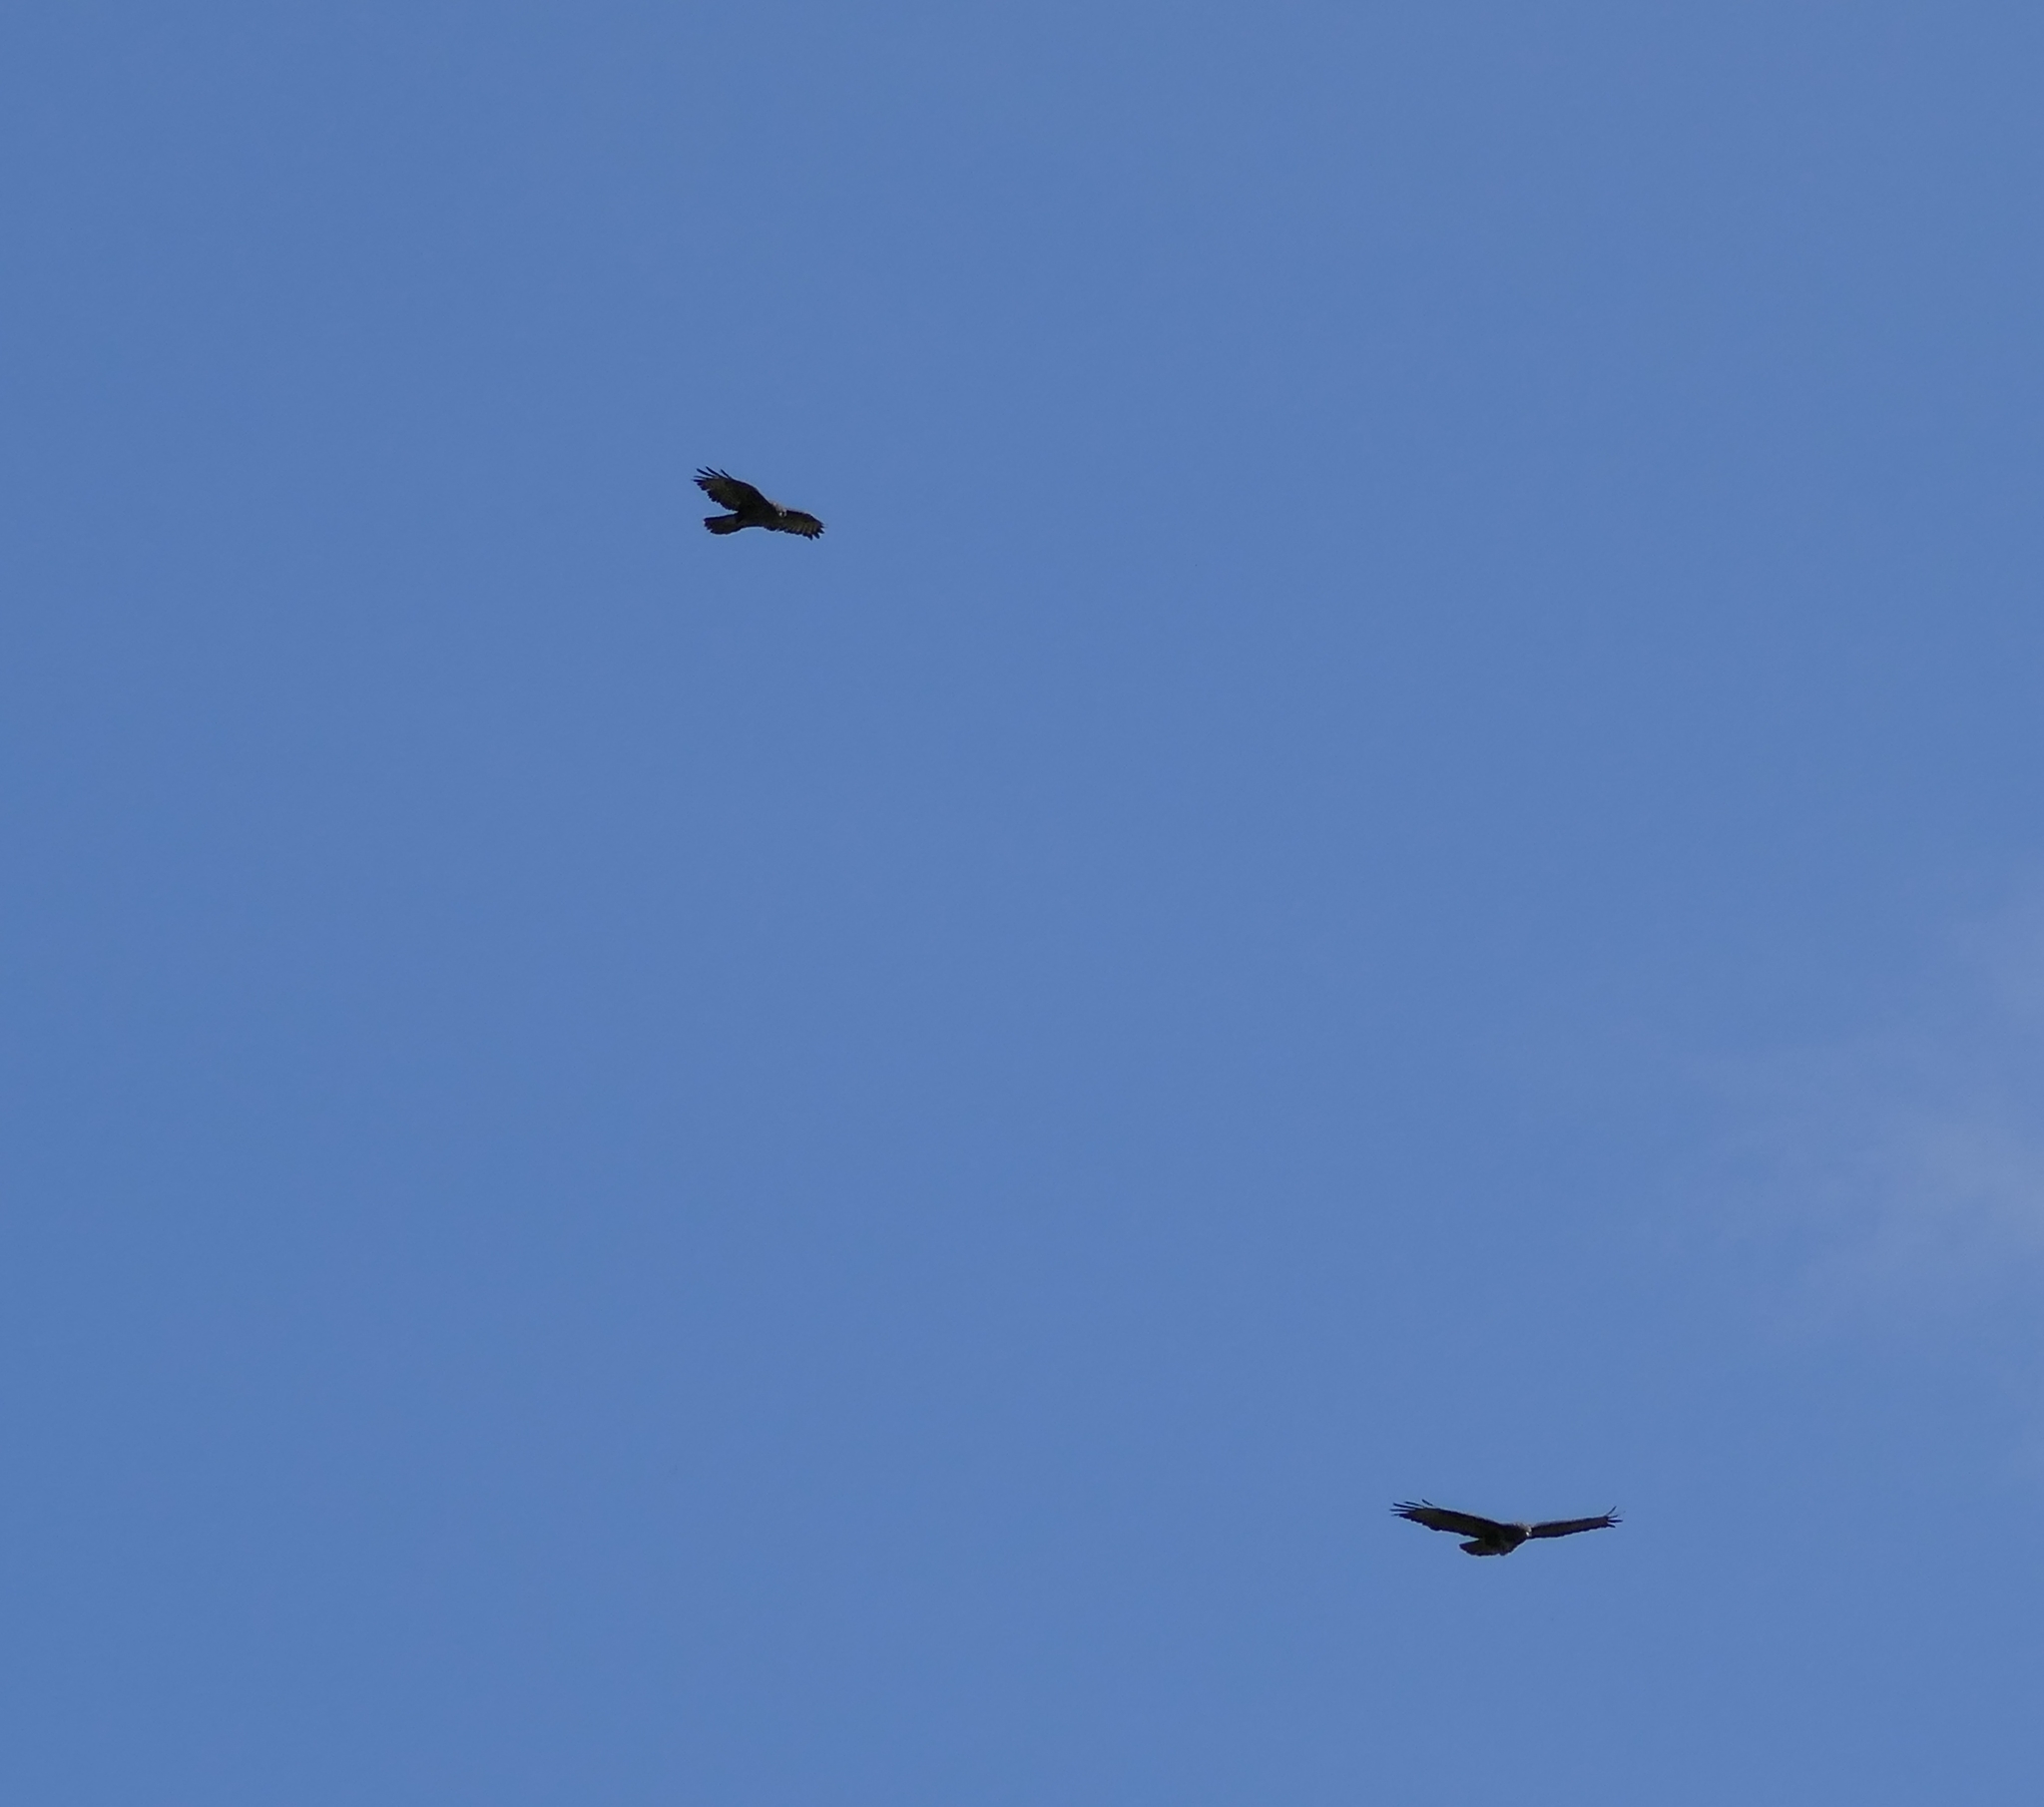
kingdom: Animalia
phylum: Chordata
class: Aves
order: Accipitriformes
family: Accipitridae
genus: Buteo
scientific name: Buteo buteo
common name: Common buzzard
